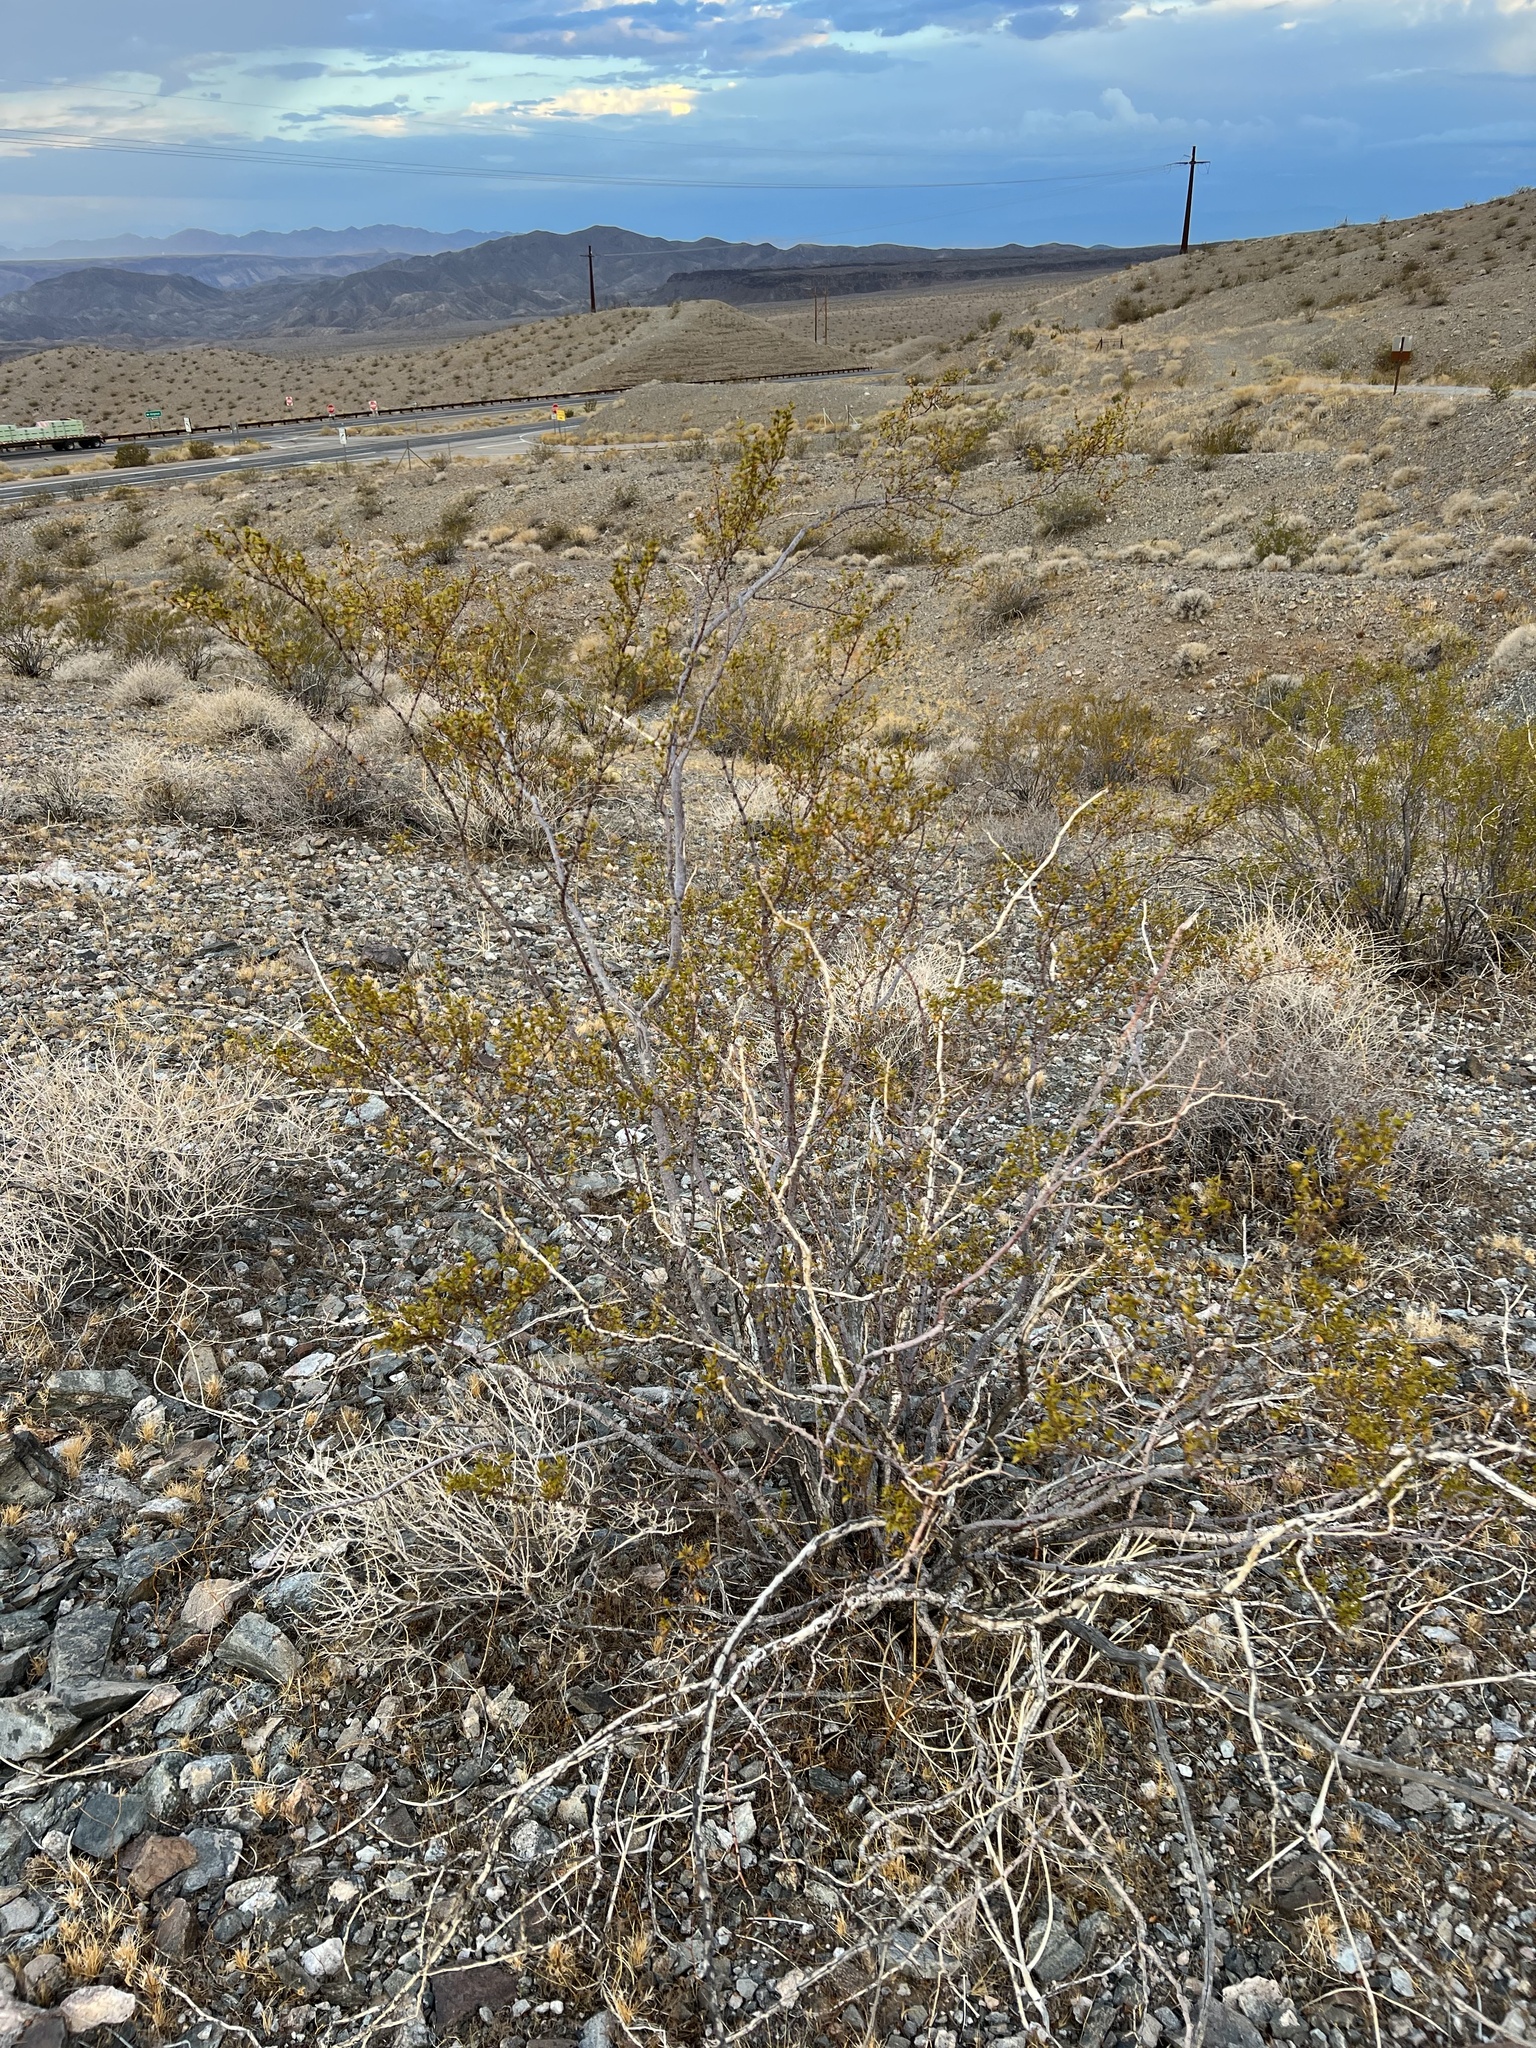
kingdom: Plantae
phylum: Tracheophyta
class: Magnoliopsida
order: Zygophyllales
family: Zygophyllaceae
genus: Larrea
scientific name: Larrea tridentata
